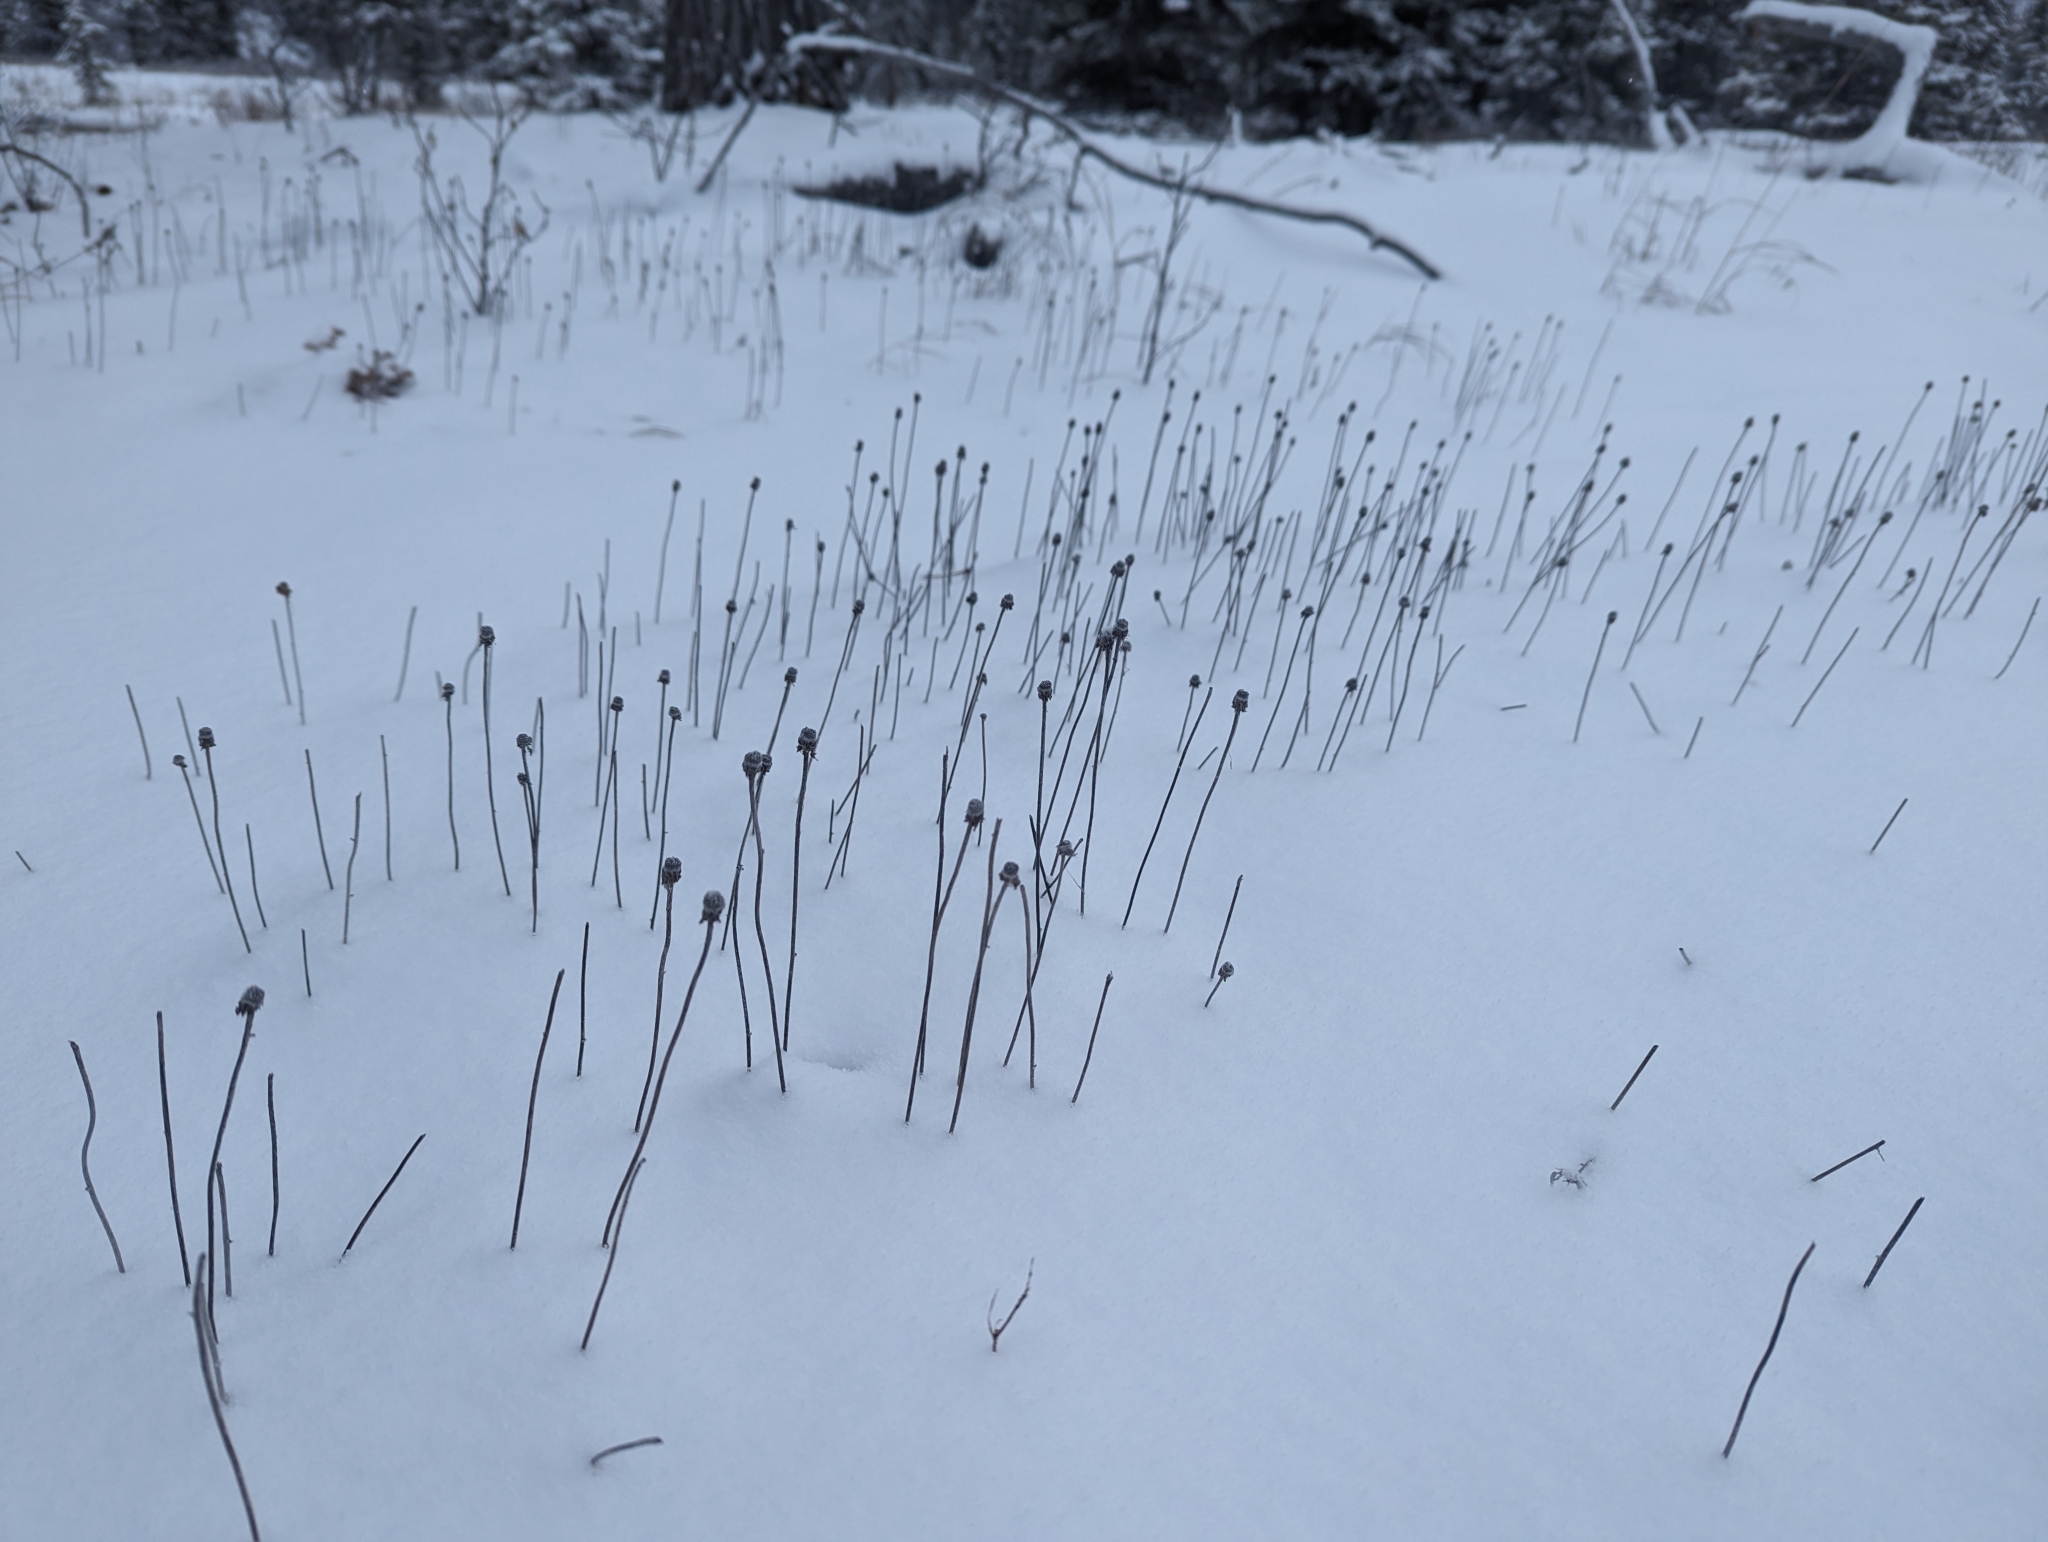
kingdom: Plantae
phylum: Tracheophyta
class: Magnoliopsida
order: Rosales
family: Rosaceae
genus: Dryas
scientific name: Dryas drummondii
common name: Drummond's dryad
